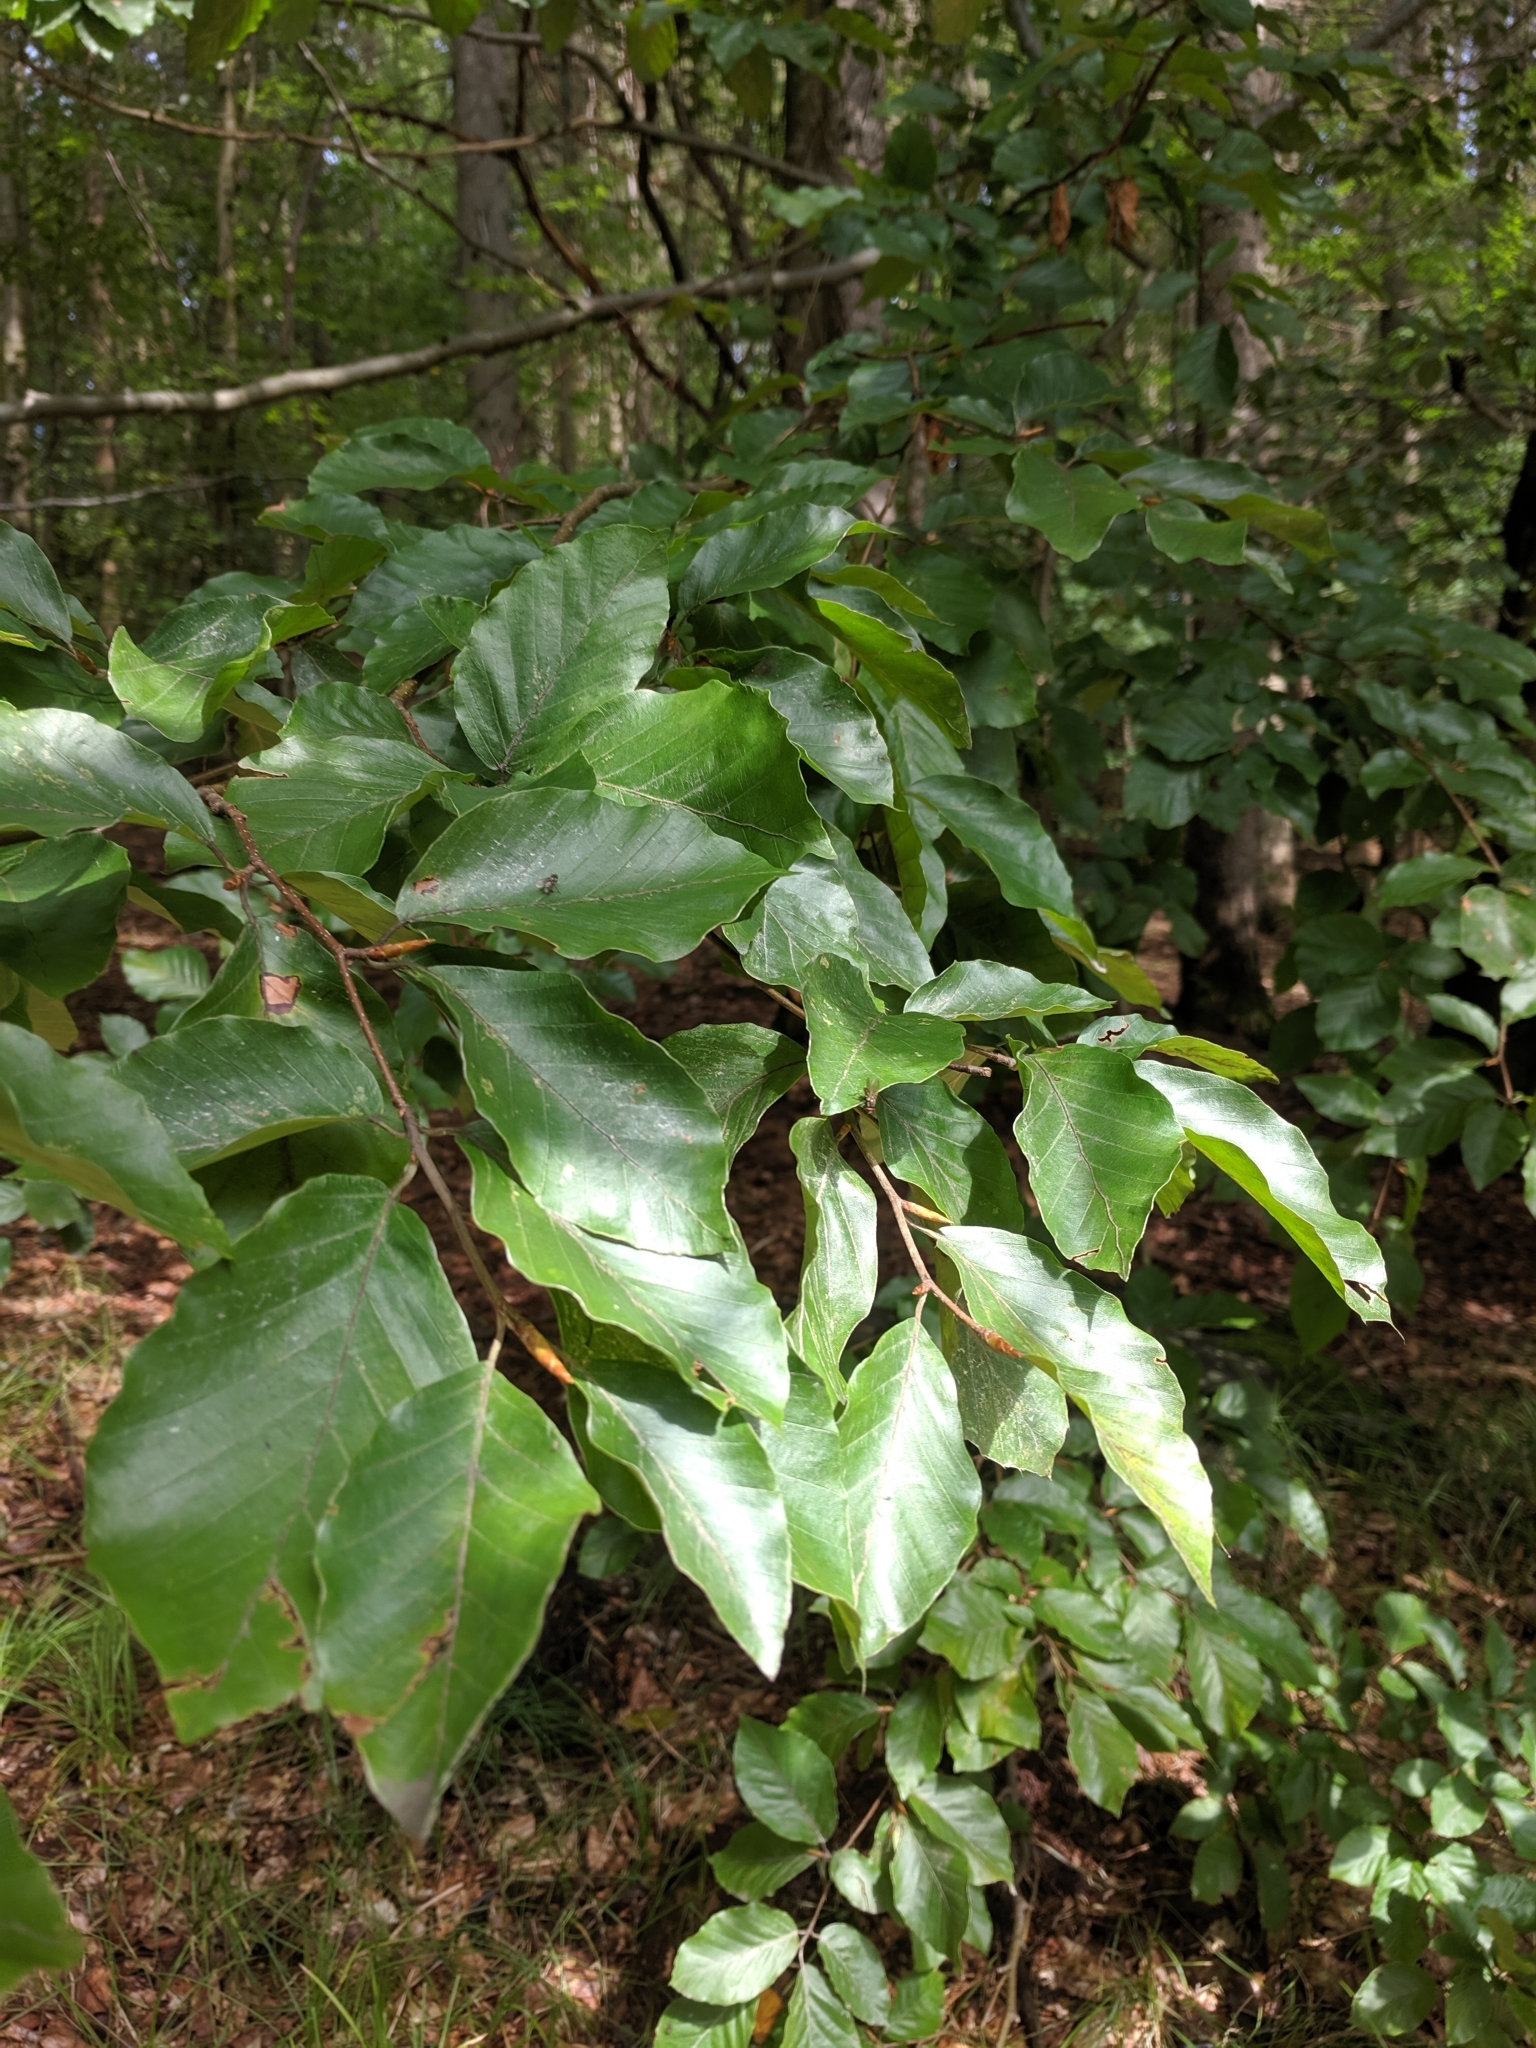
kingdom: Plantae
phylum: Tracheophyta
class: Magnoliopsida
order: Fagales
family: Fagaceae
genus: Fagus
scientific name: Fagus sylvatica
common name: Beech
